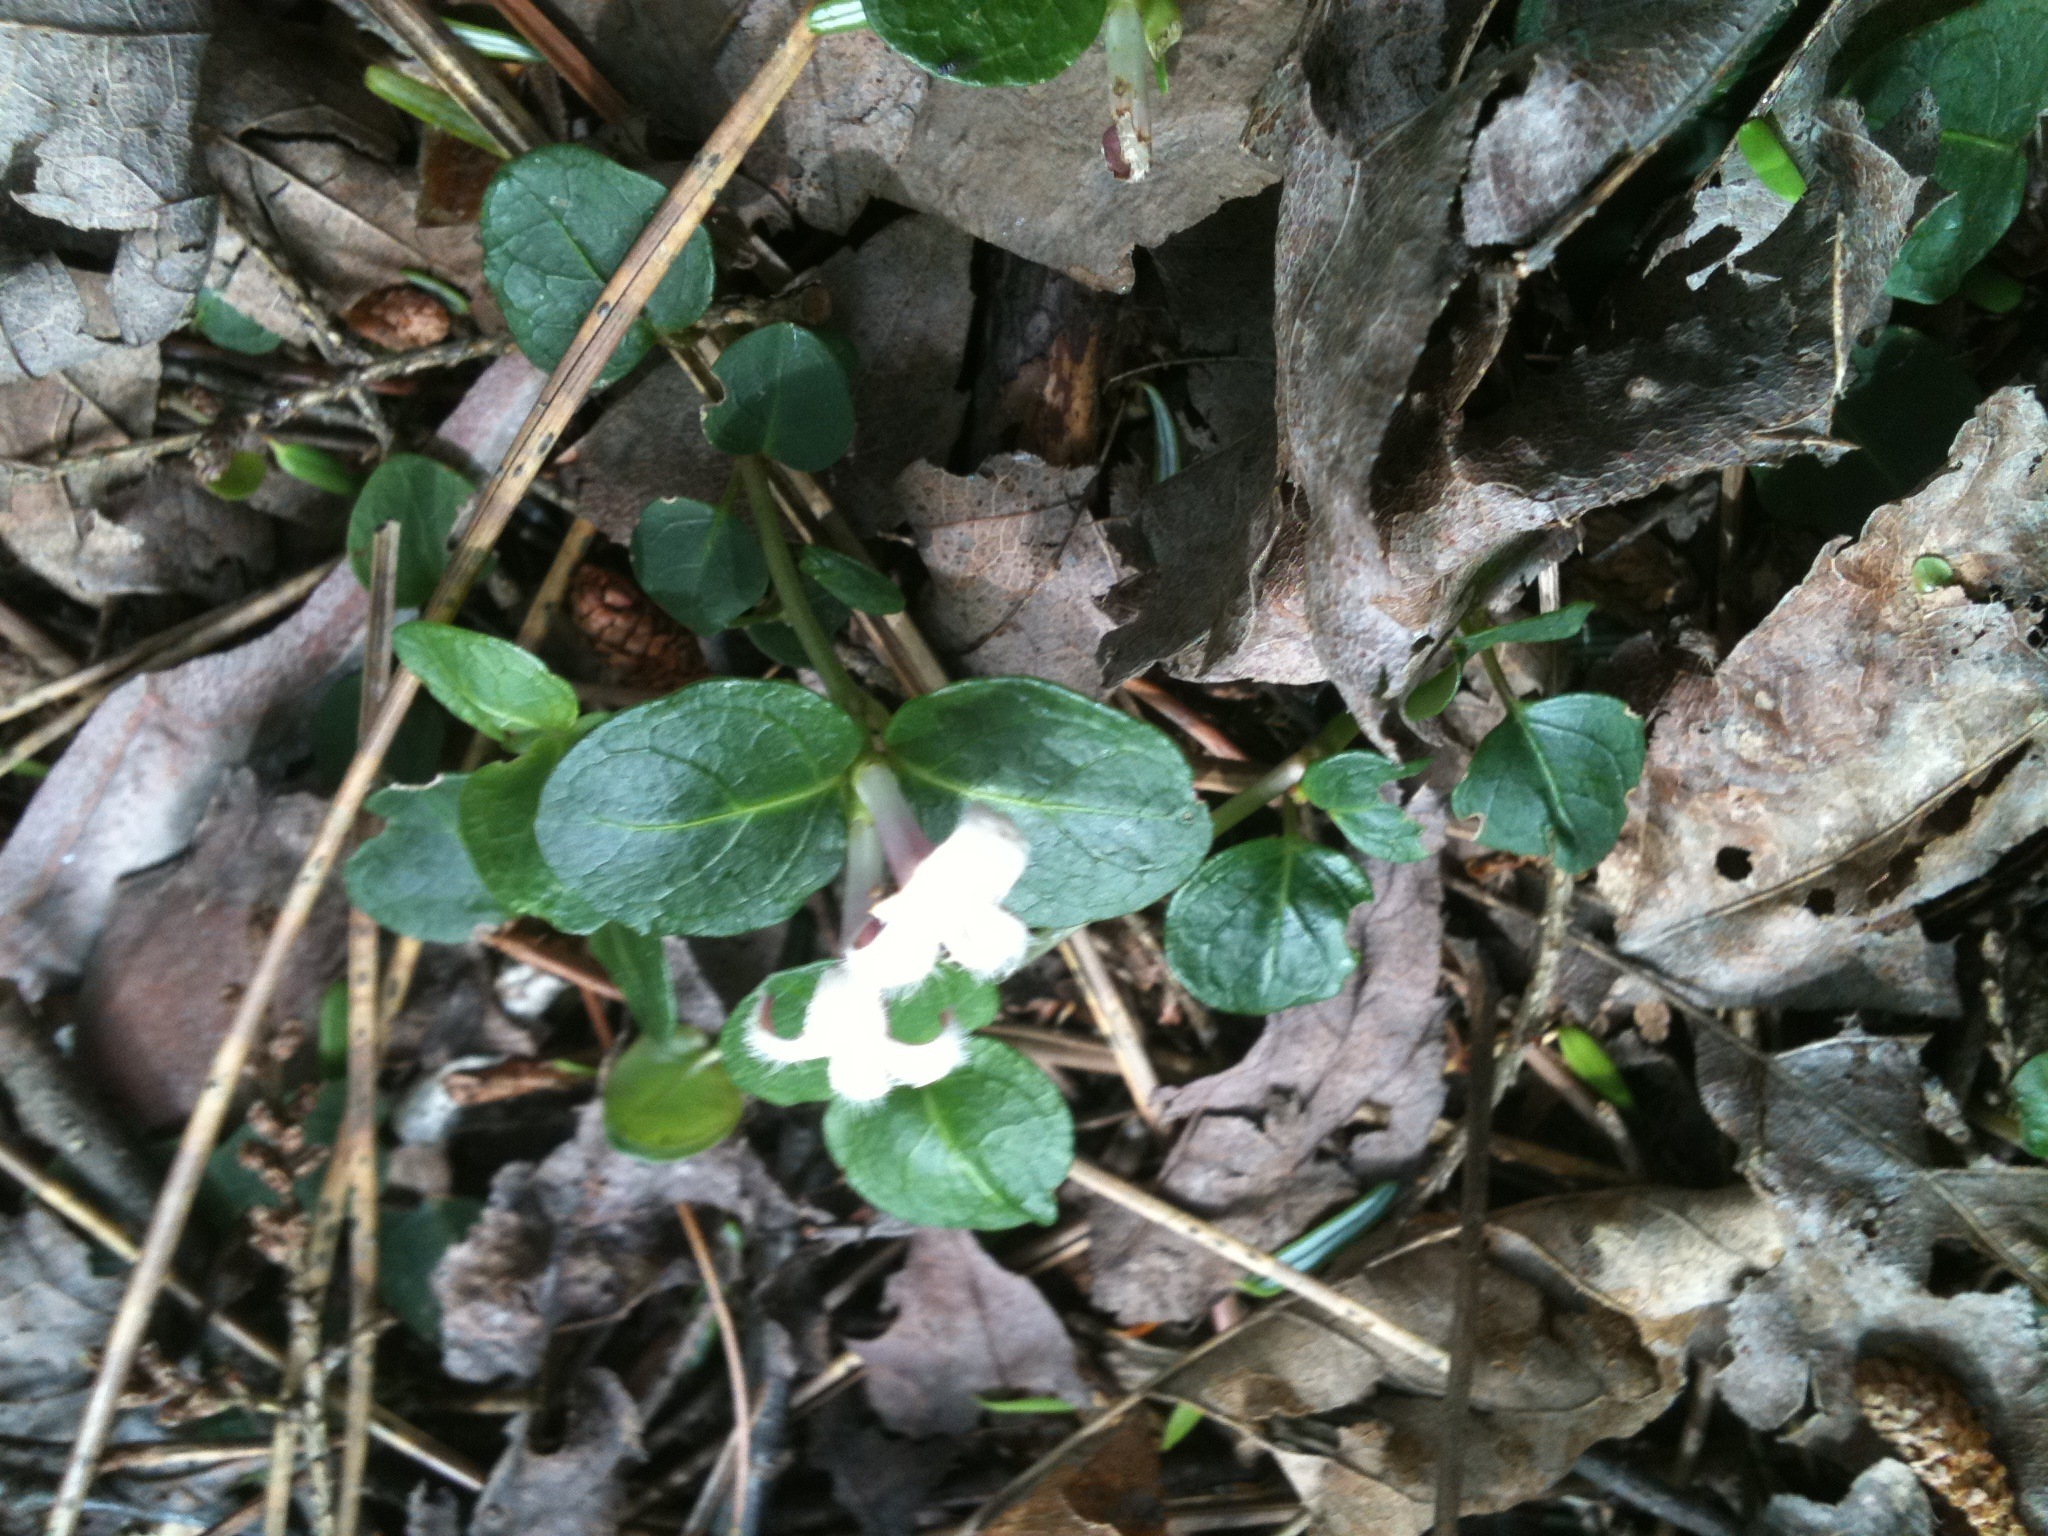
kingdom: Plantae
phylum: Tracheophyta
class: Magnoliopsida
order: Gentianales
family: Rubiaceae
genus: Mitchella
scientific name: Mitchella repens
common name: Partridge-berry
